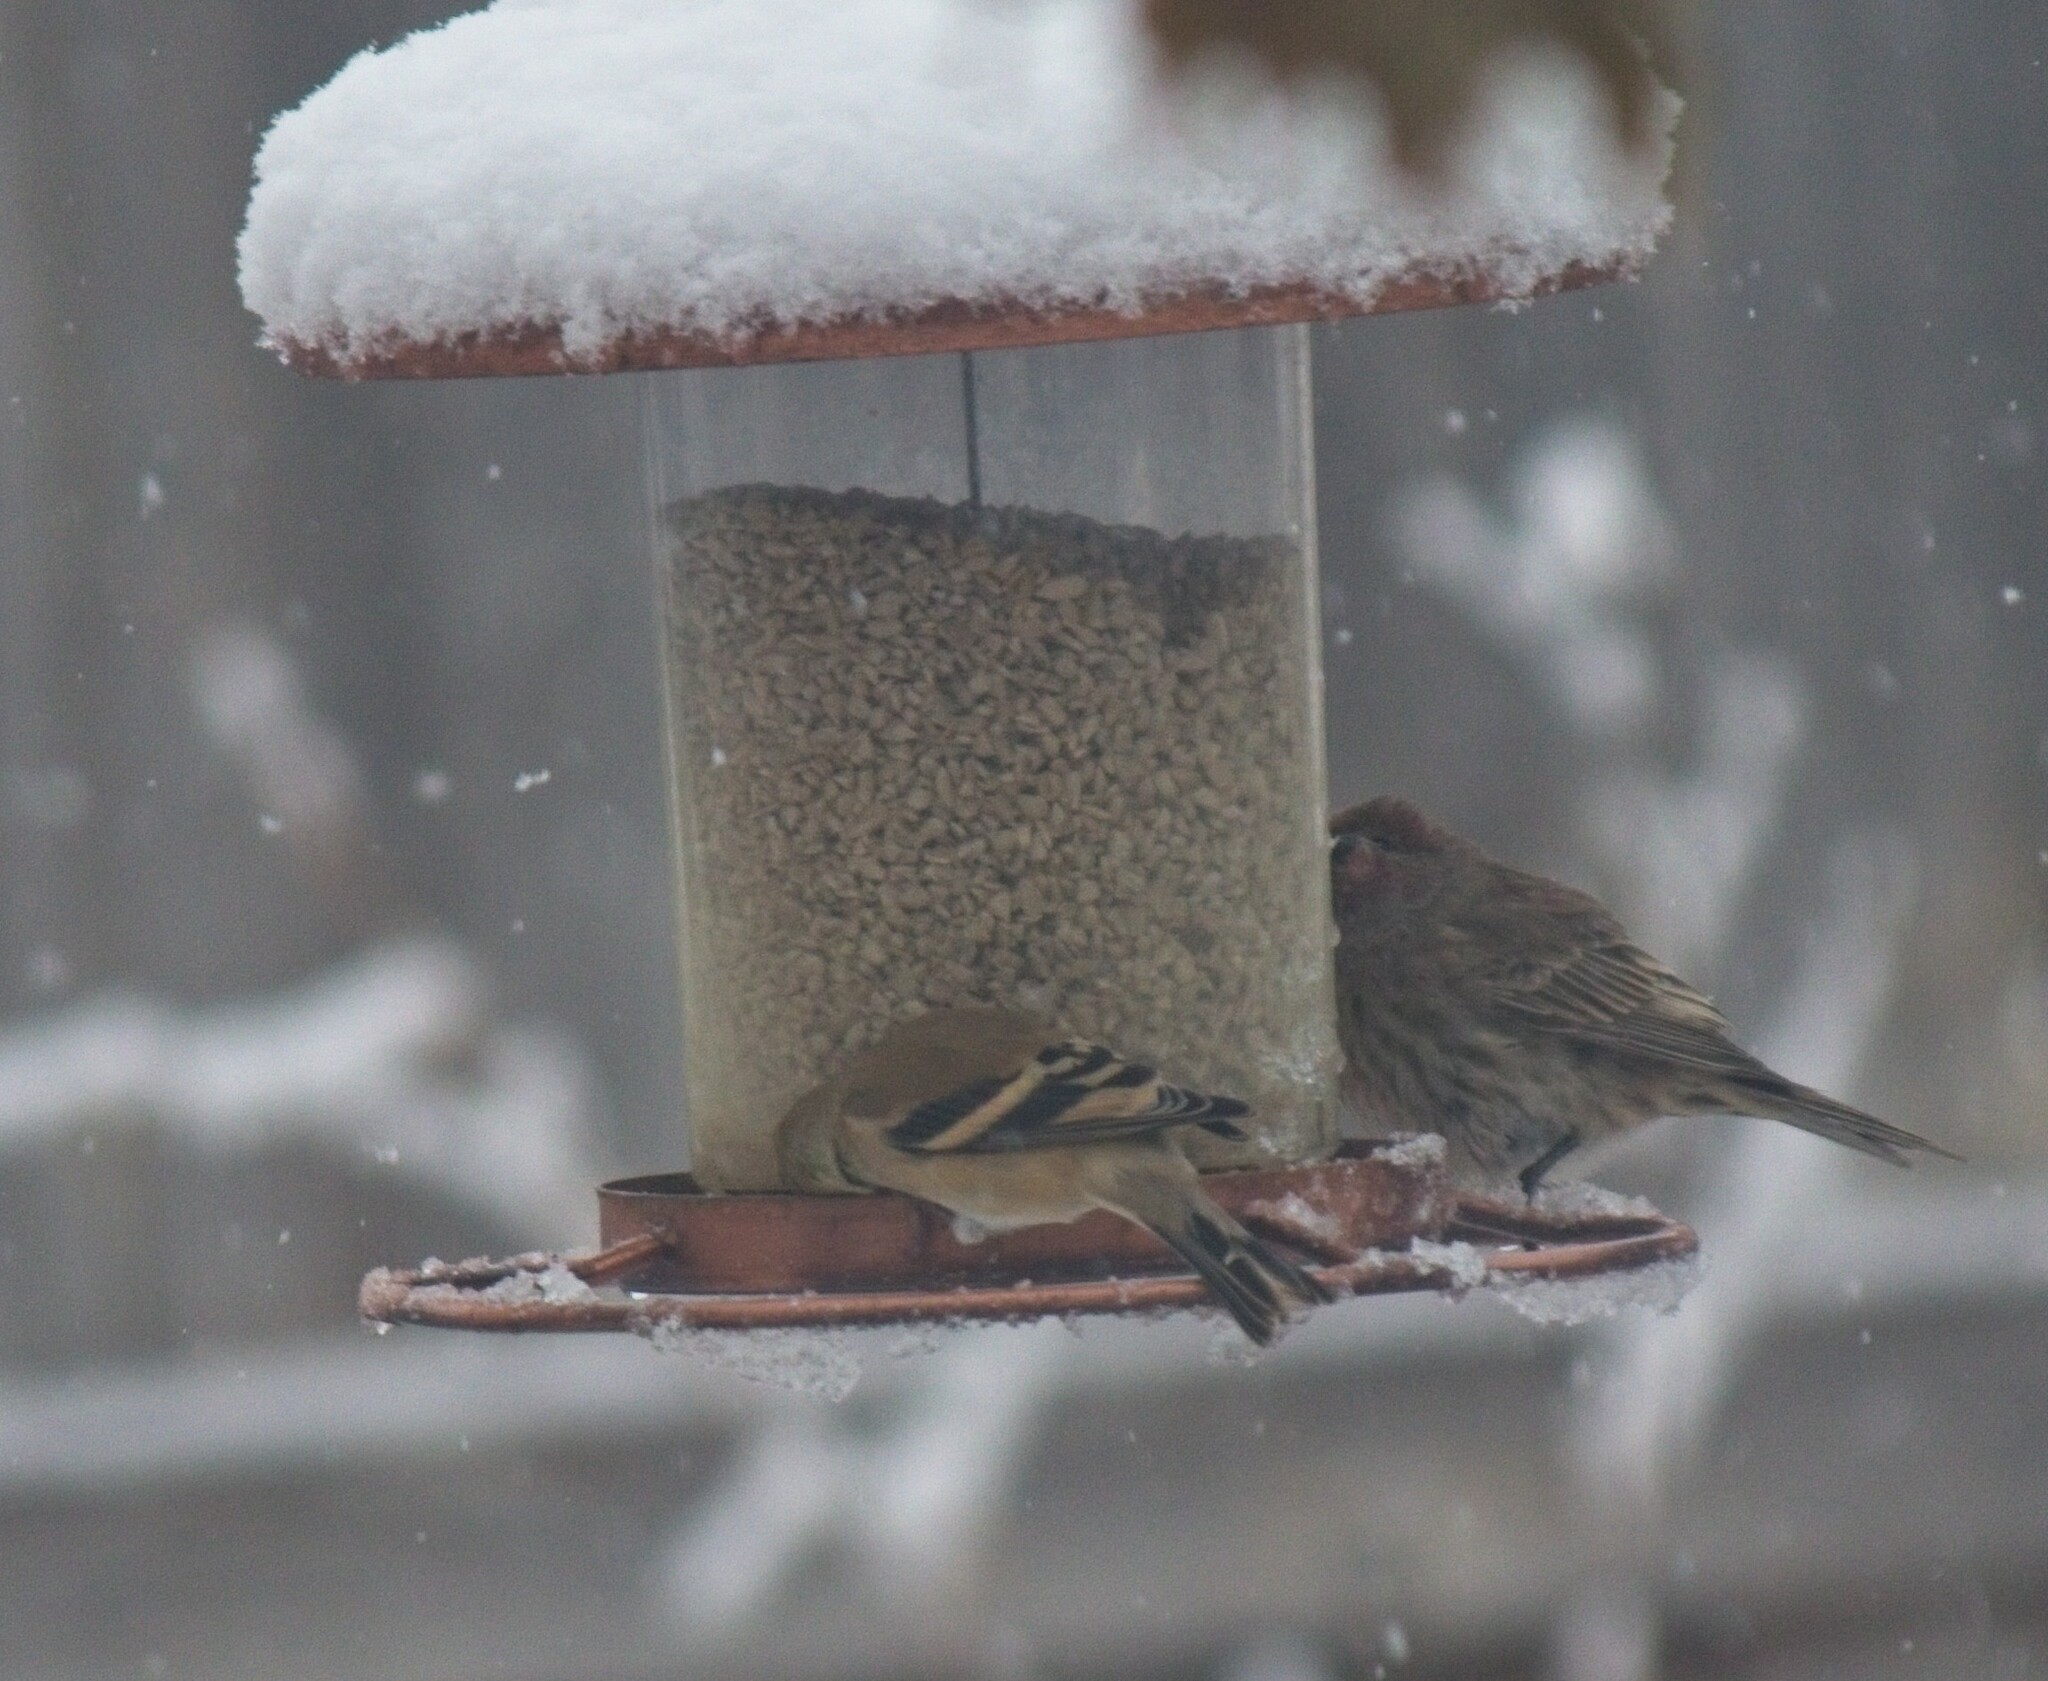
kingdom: Animalia
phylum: Chordata
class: Aves
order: Passeriformes
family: Fringillidae
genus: Spinus
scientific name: Spinus tristis
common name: American goldfinch
